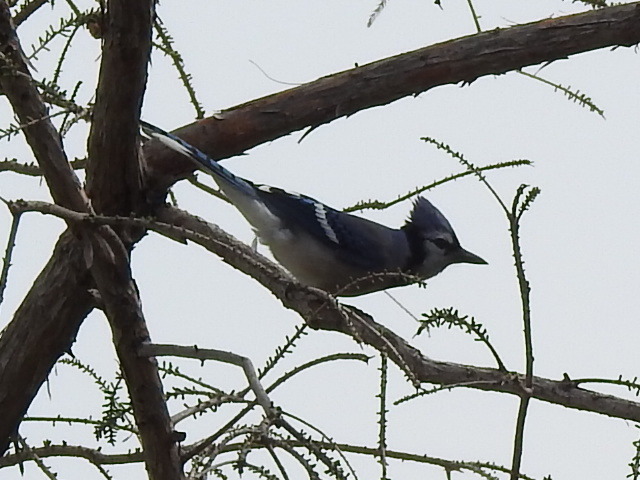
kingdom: Animalia
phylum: Chordata
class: Aves
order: Passeriformes
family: Corvidae
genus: Cyanocitta
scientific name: Cyanocitta cristata
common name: Blue jay
